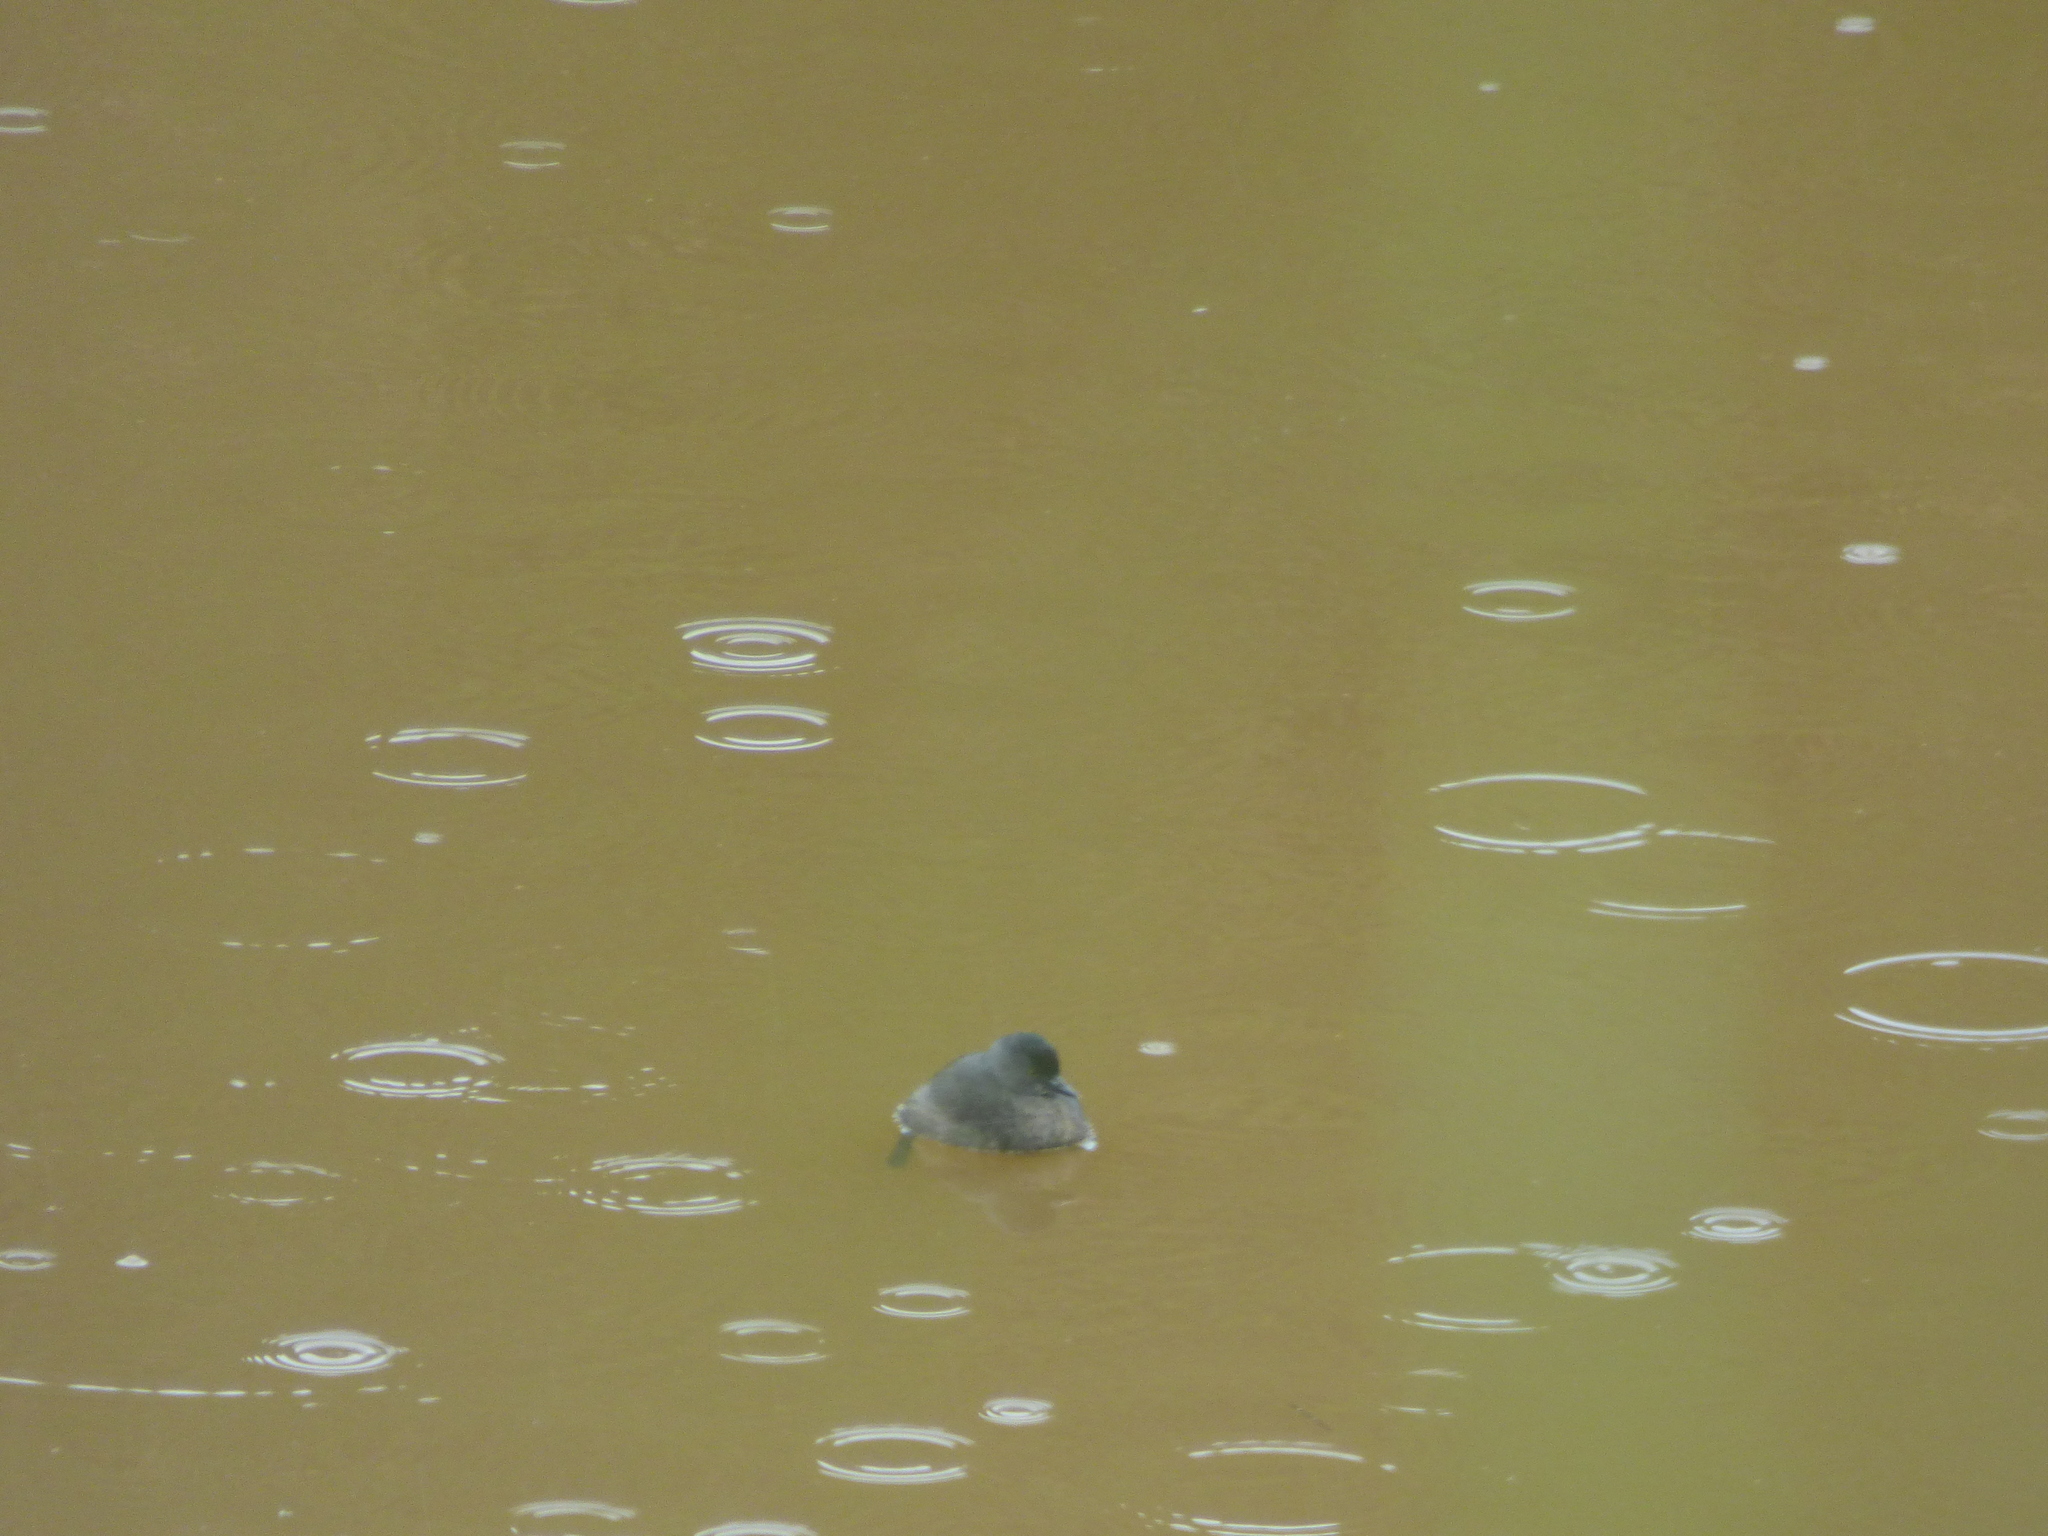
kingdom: Animalia
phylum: Chordata
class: Aves
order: Podicipediformes
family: Podicipedidae
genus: Tachybaptus
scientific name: Tachybaptus dominicus
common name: Least grebe
